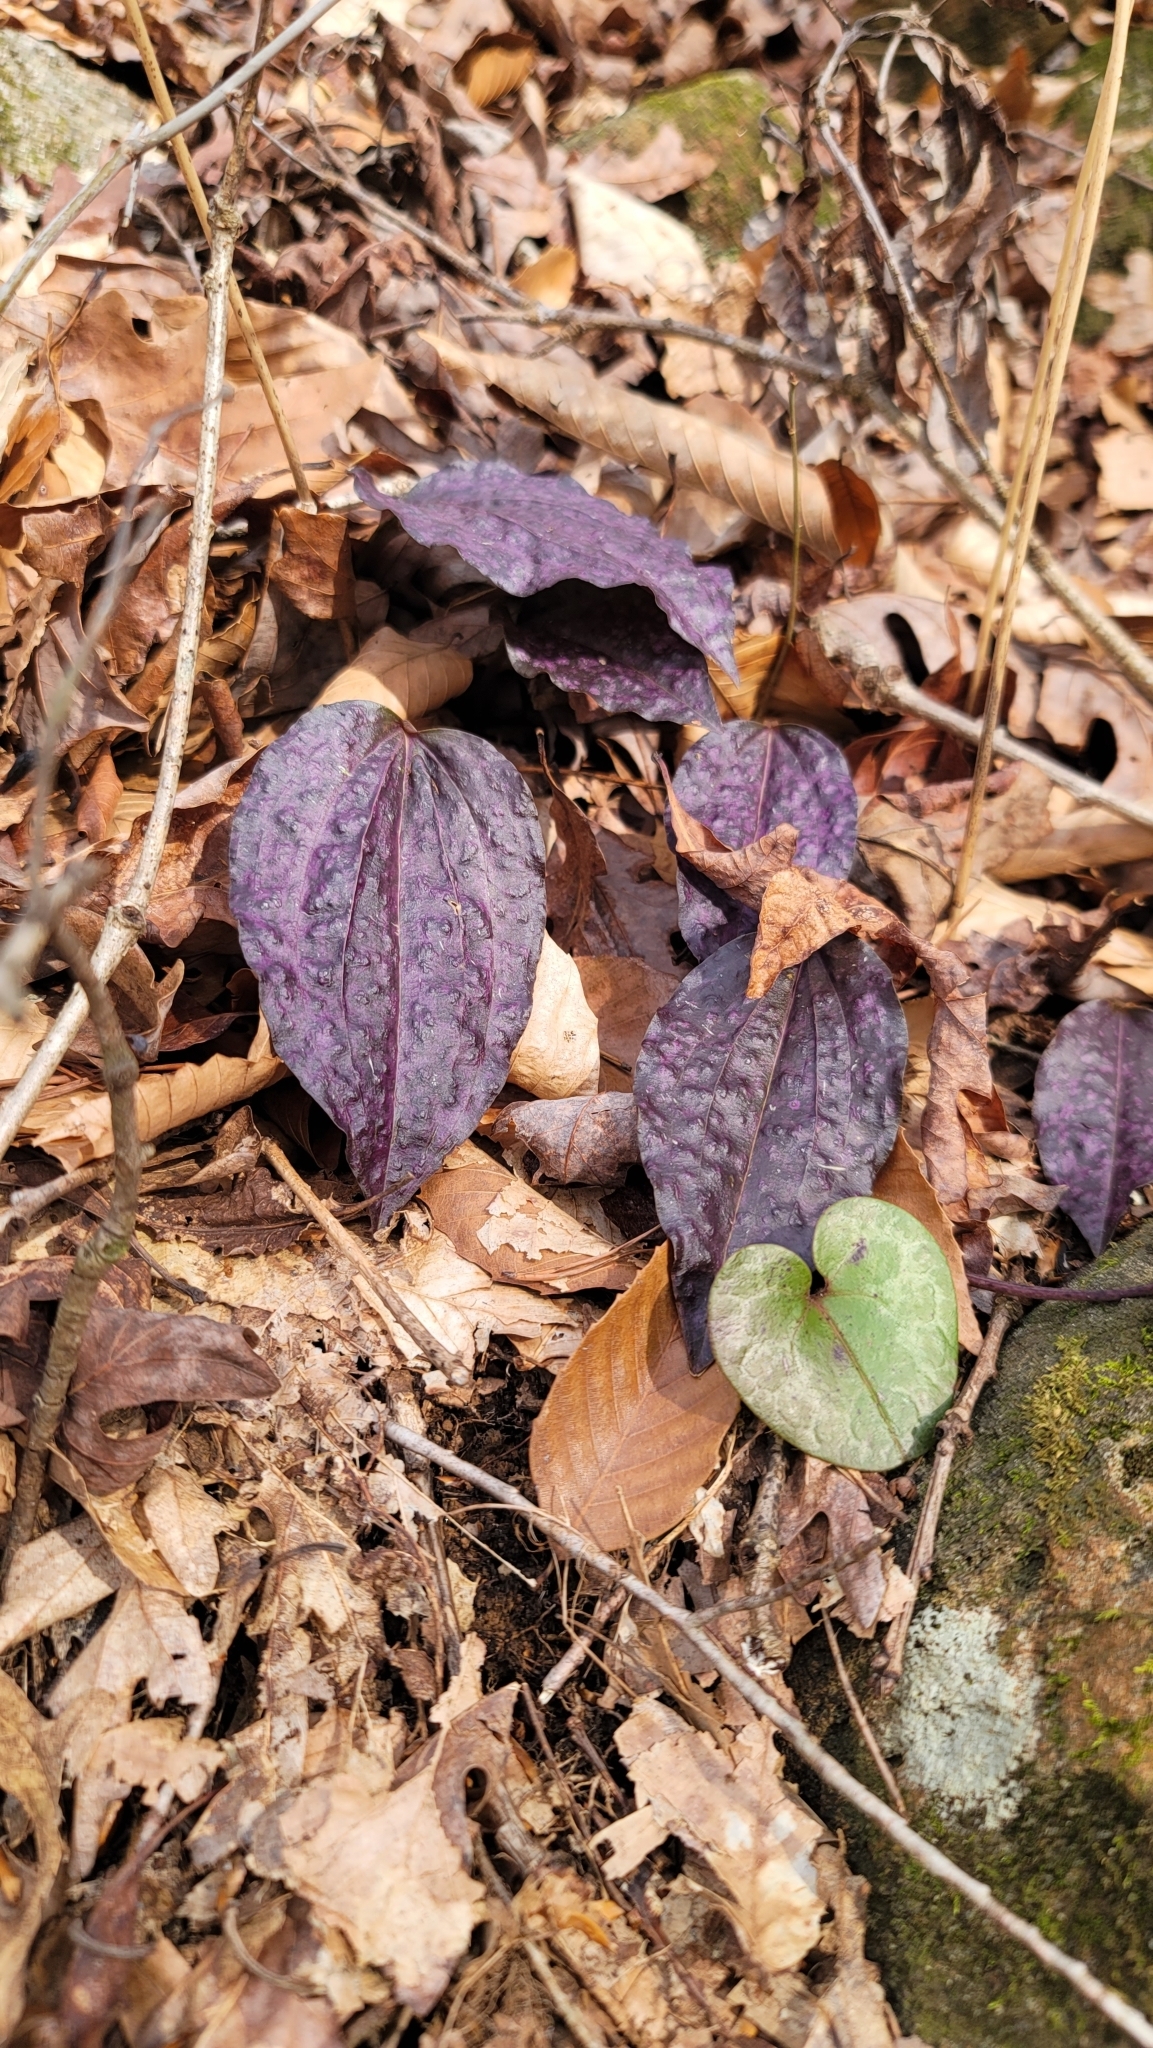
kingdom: Plantae
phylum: Tracheophyta
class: Liliopsida
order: Asparagales
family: Orchidaceae
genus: Tipularia
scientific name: Tipularia discolor
